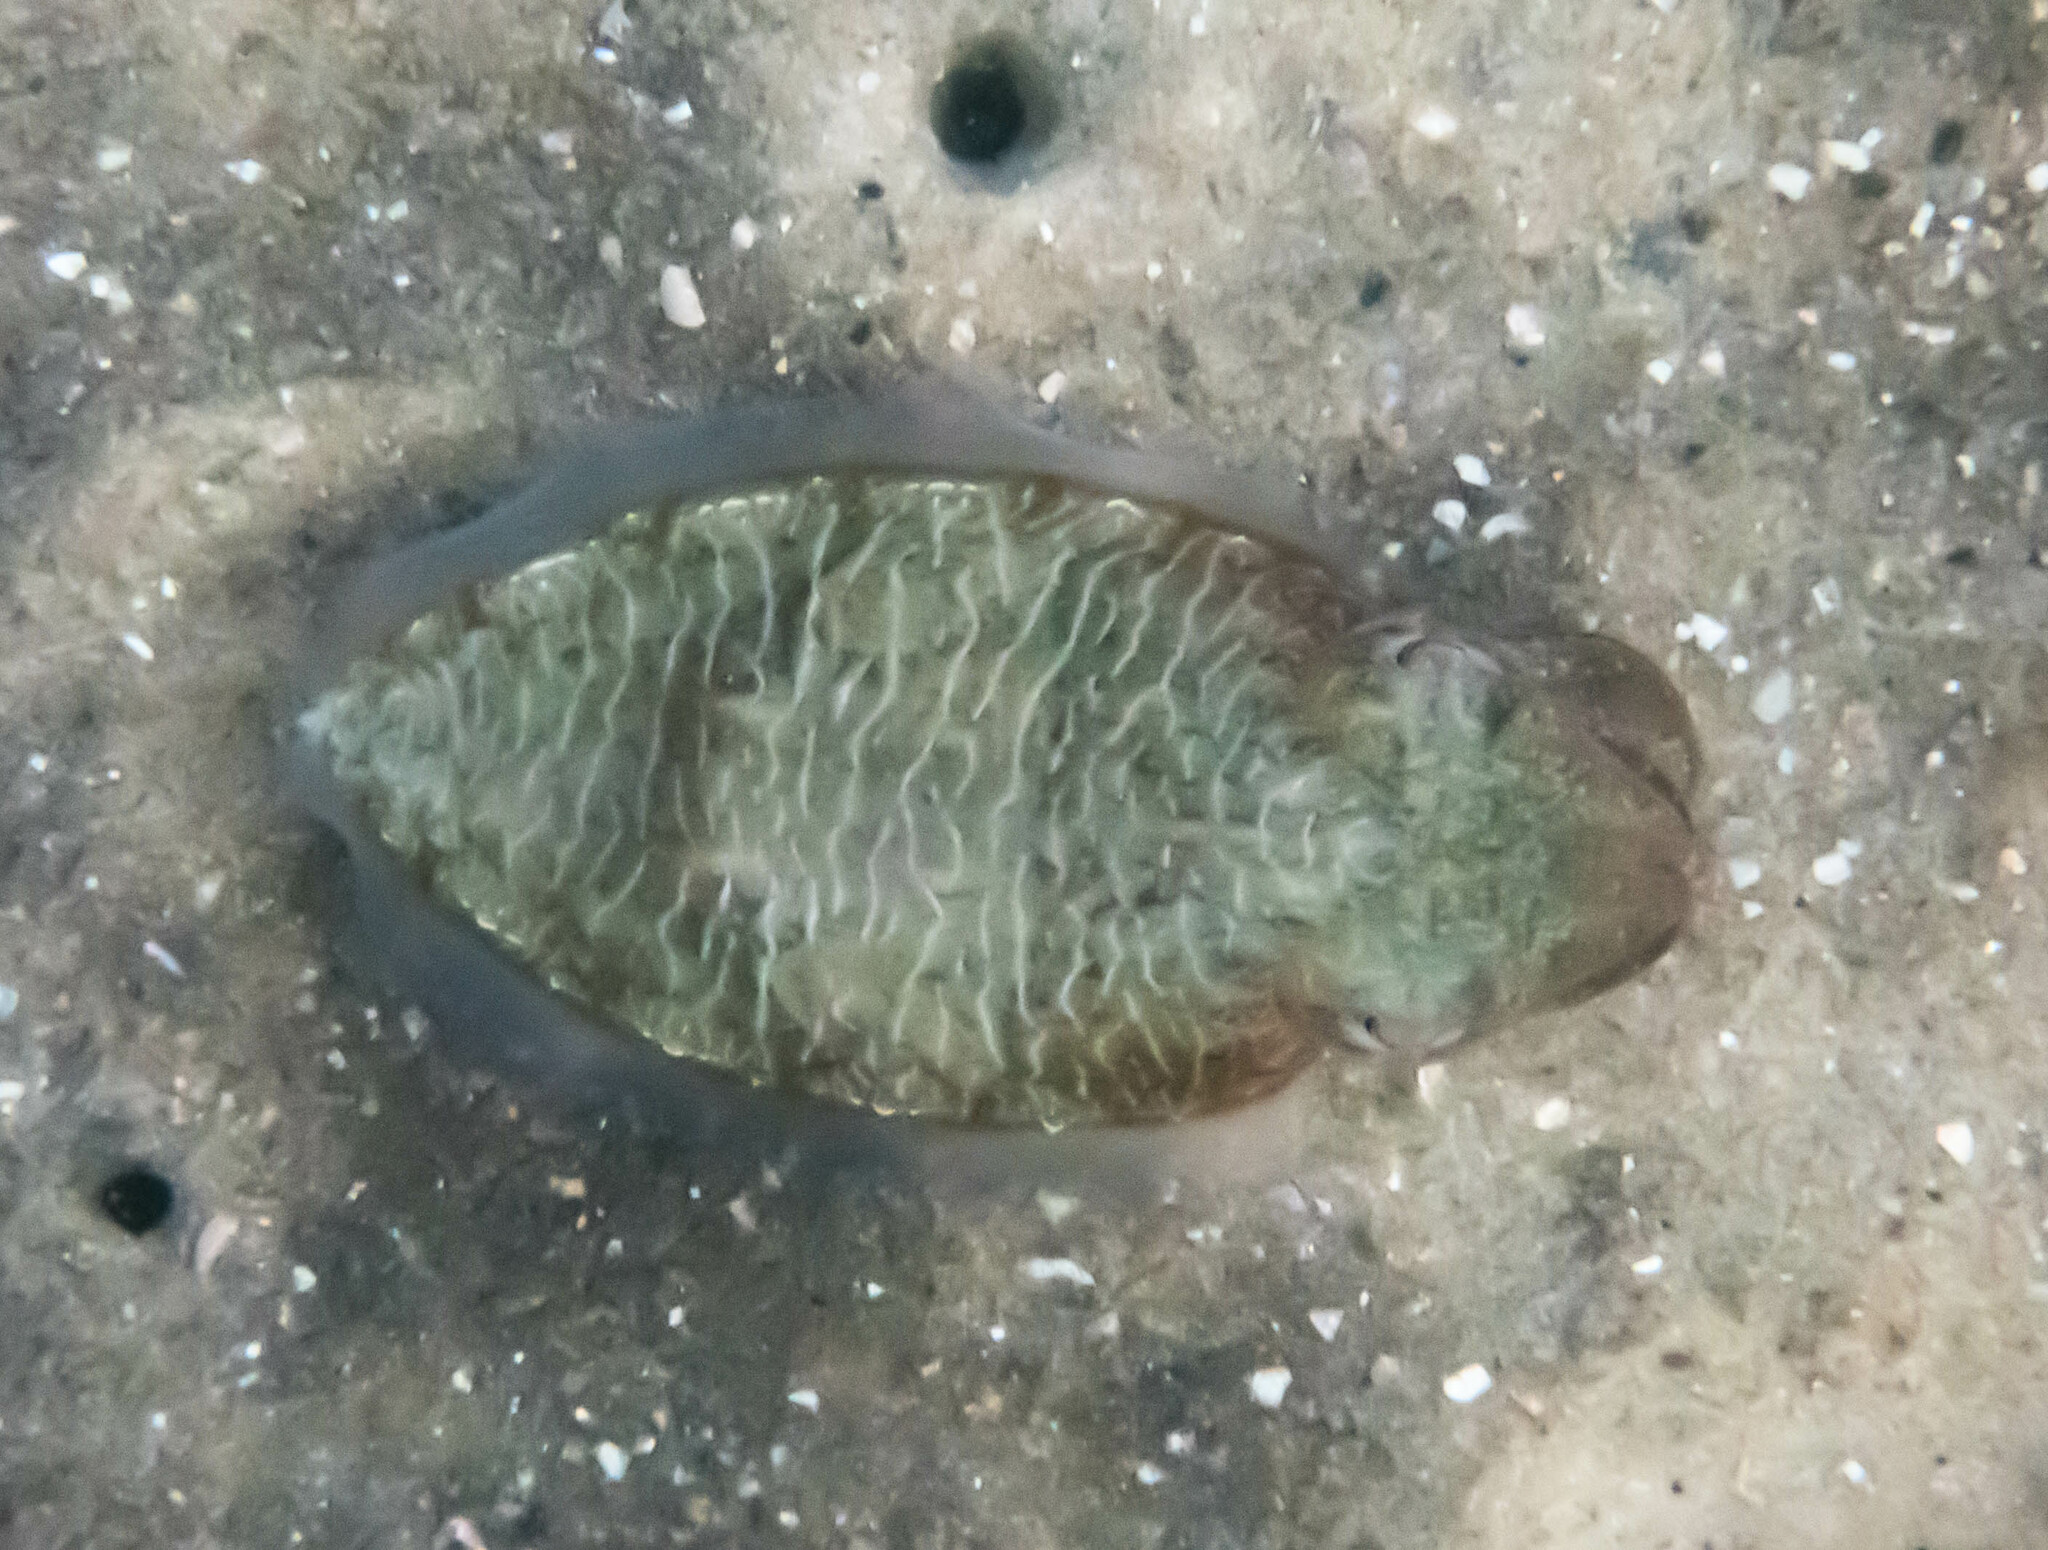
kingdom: Animalia
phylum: Mollusca
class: Cephalopoda
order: Sepiida
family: Sepiidae
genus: Ascarosepion
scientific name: Ascarosepion plangon
